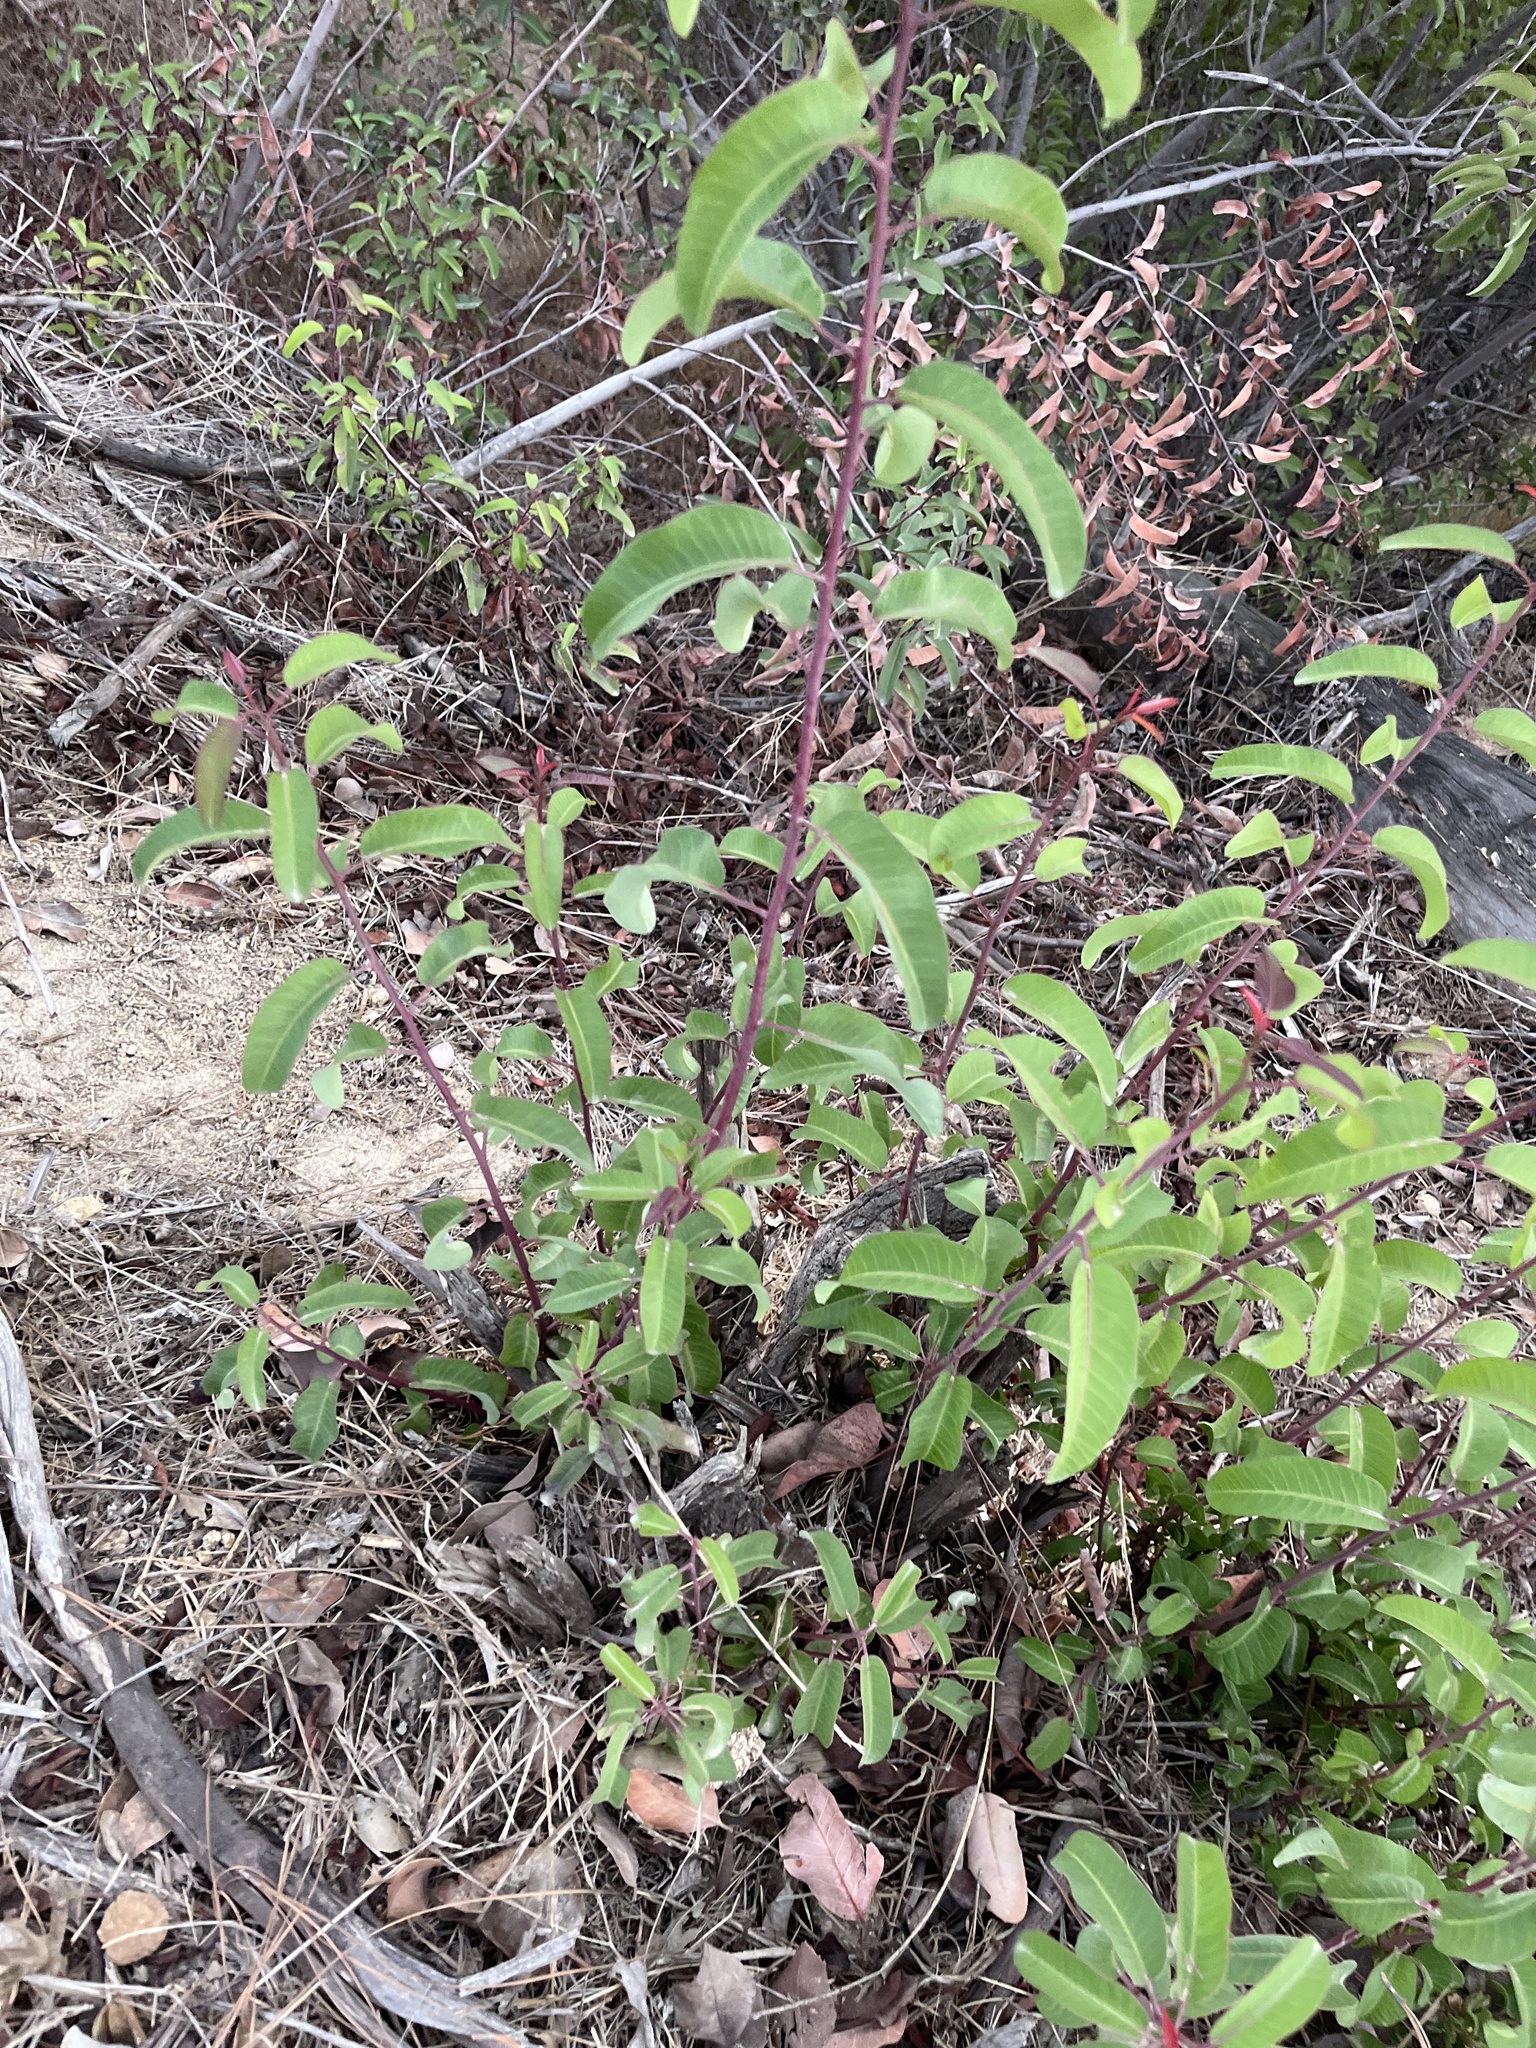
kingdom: Plantae
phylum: Tracheophyta
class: Magnoliopsida
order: Sapindales
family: Anacardiaceae
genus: Malosma
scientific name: Malosma laurina
